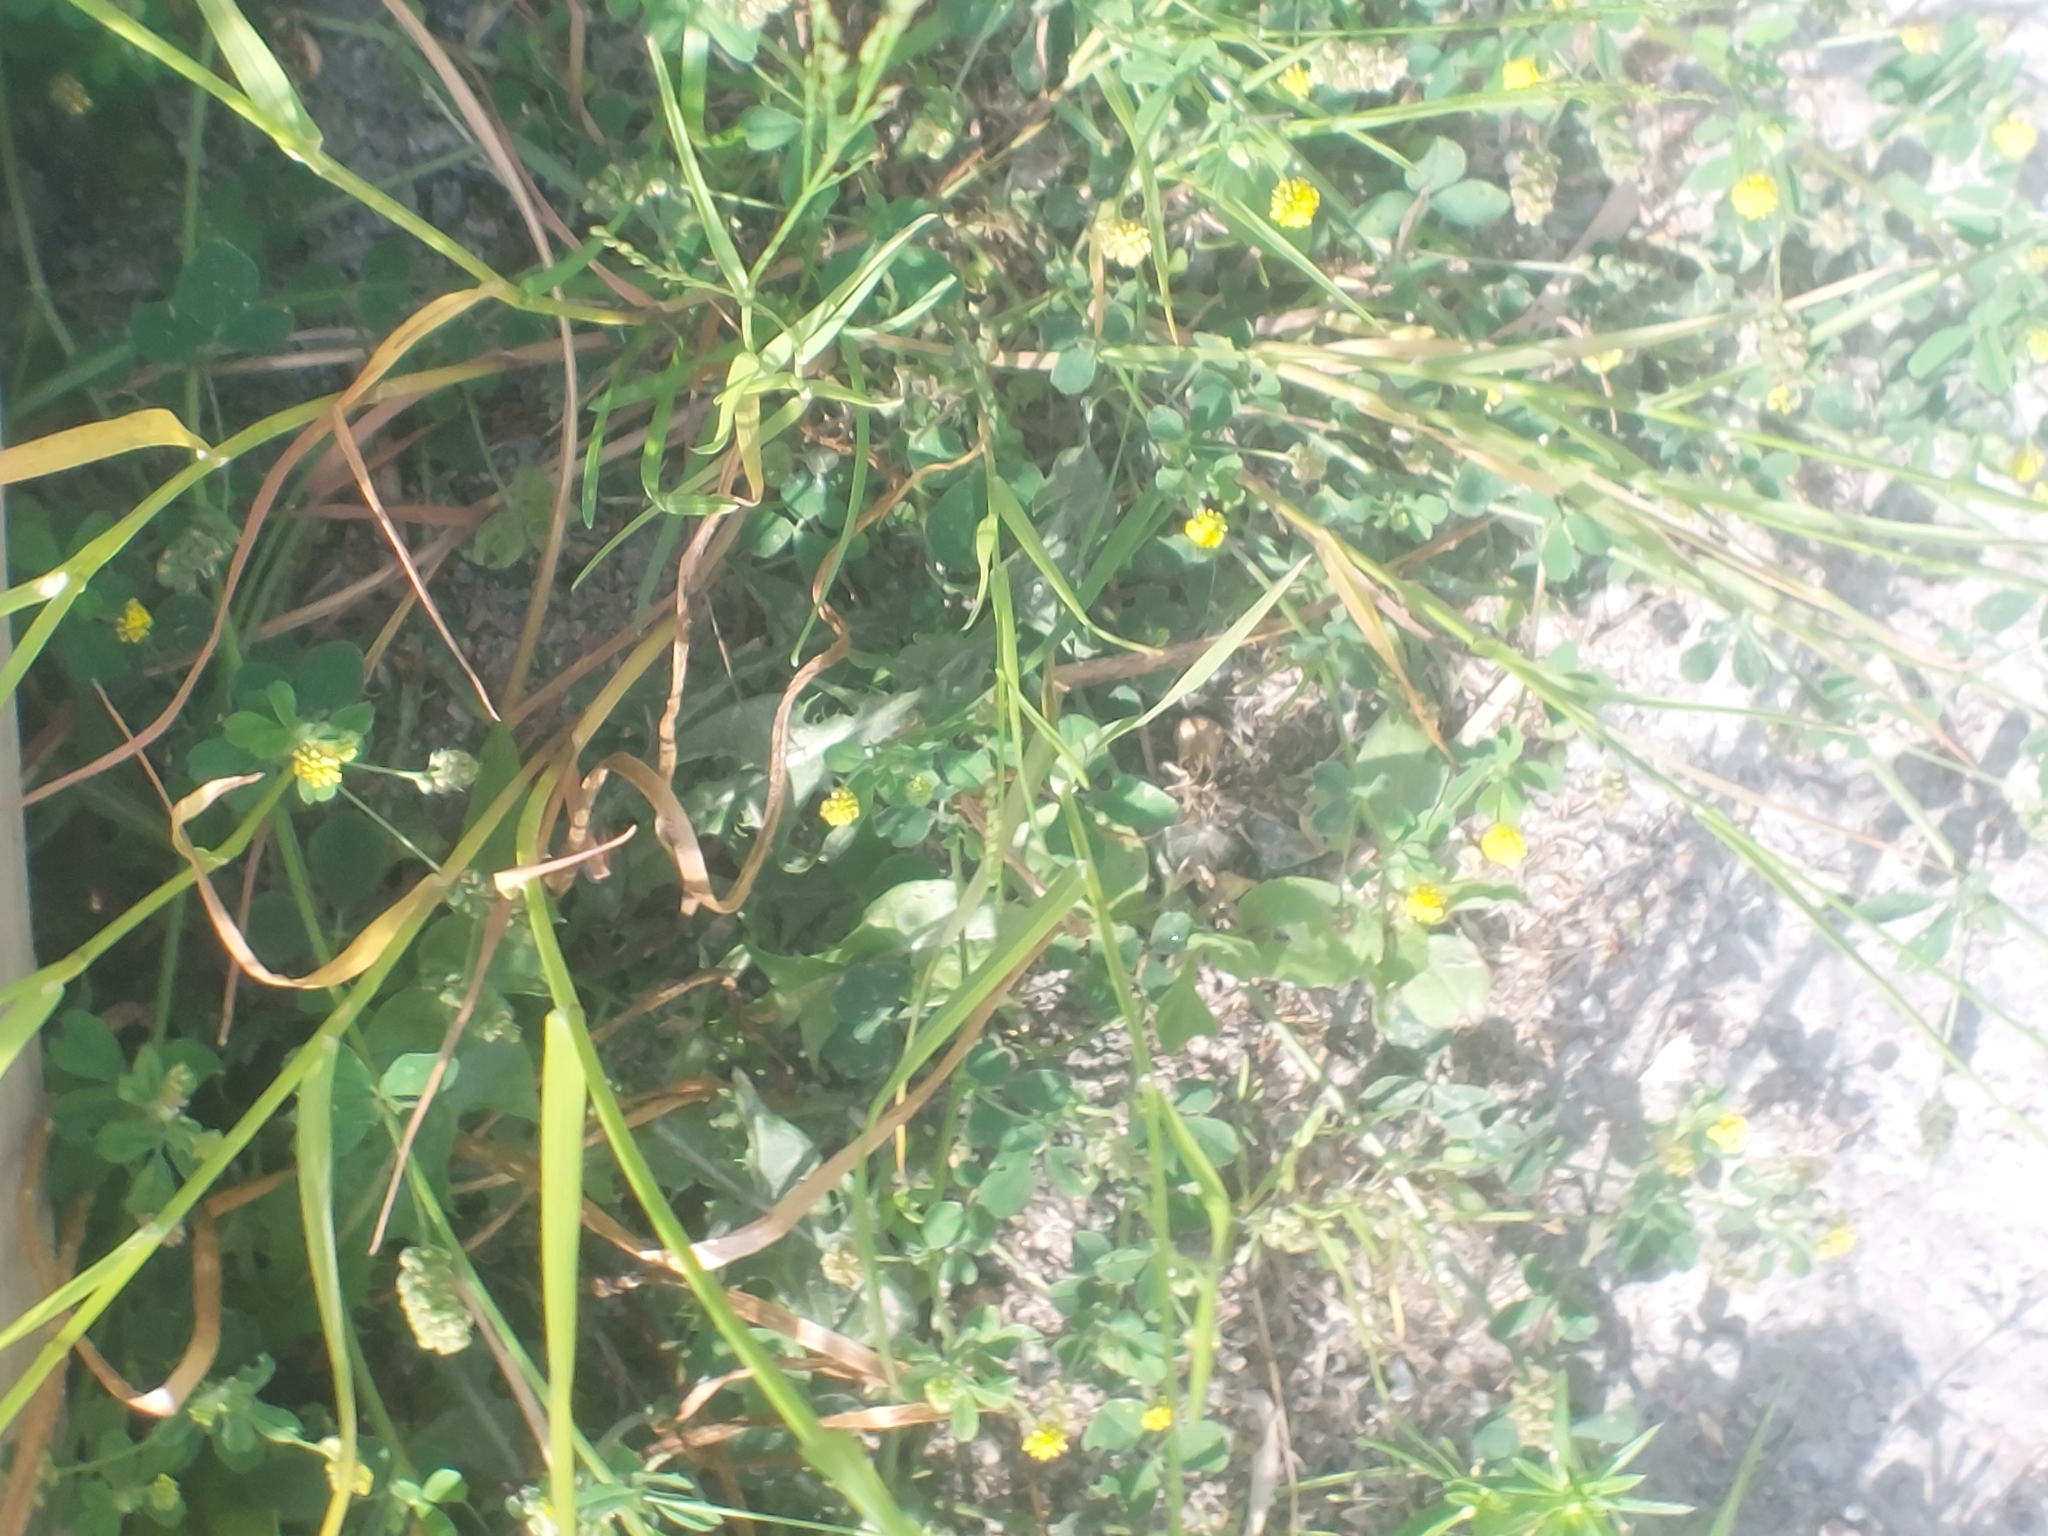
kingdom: Plantae
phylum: Tracheophyta
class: Magnoliopsida
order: Fabales
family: Fabaceae
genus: Medicago
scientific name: Medicago lupulina
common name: Black medick
